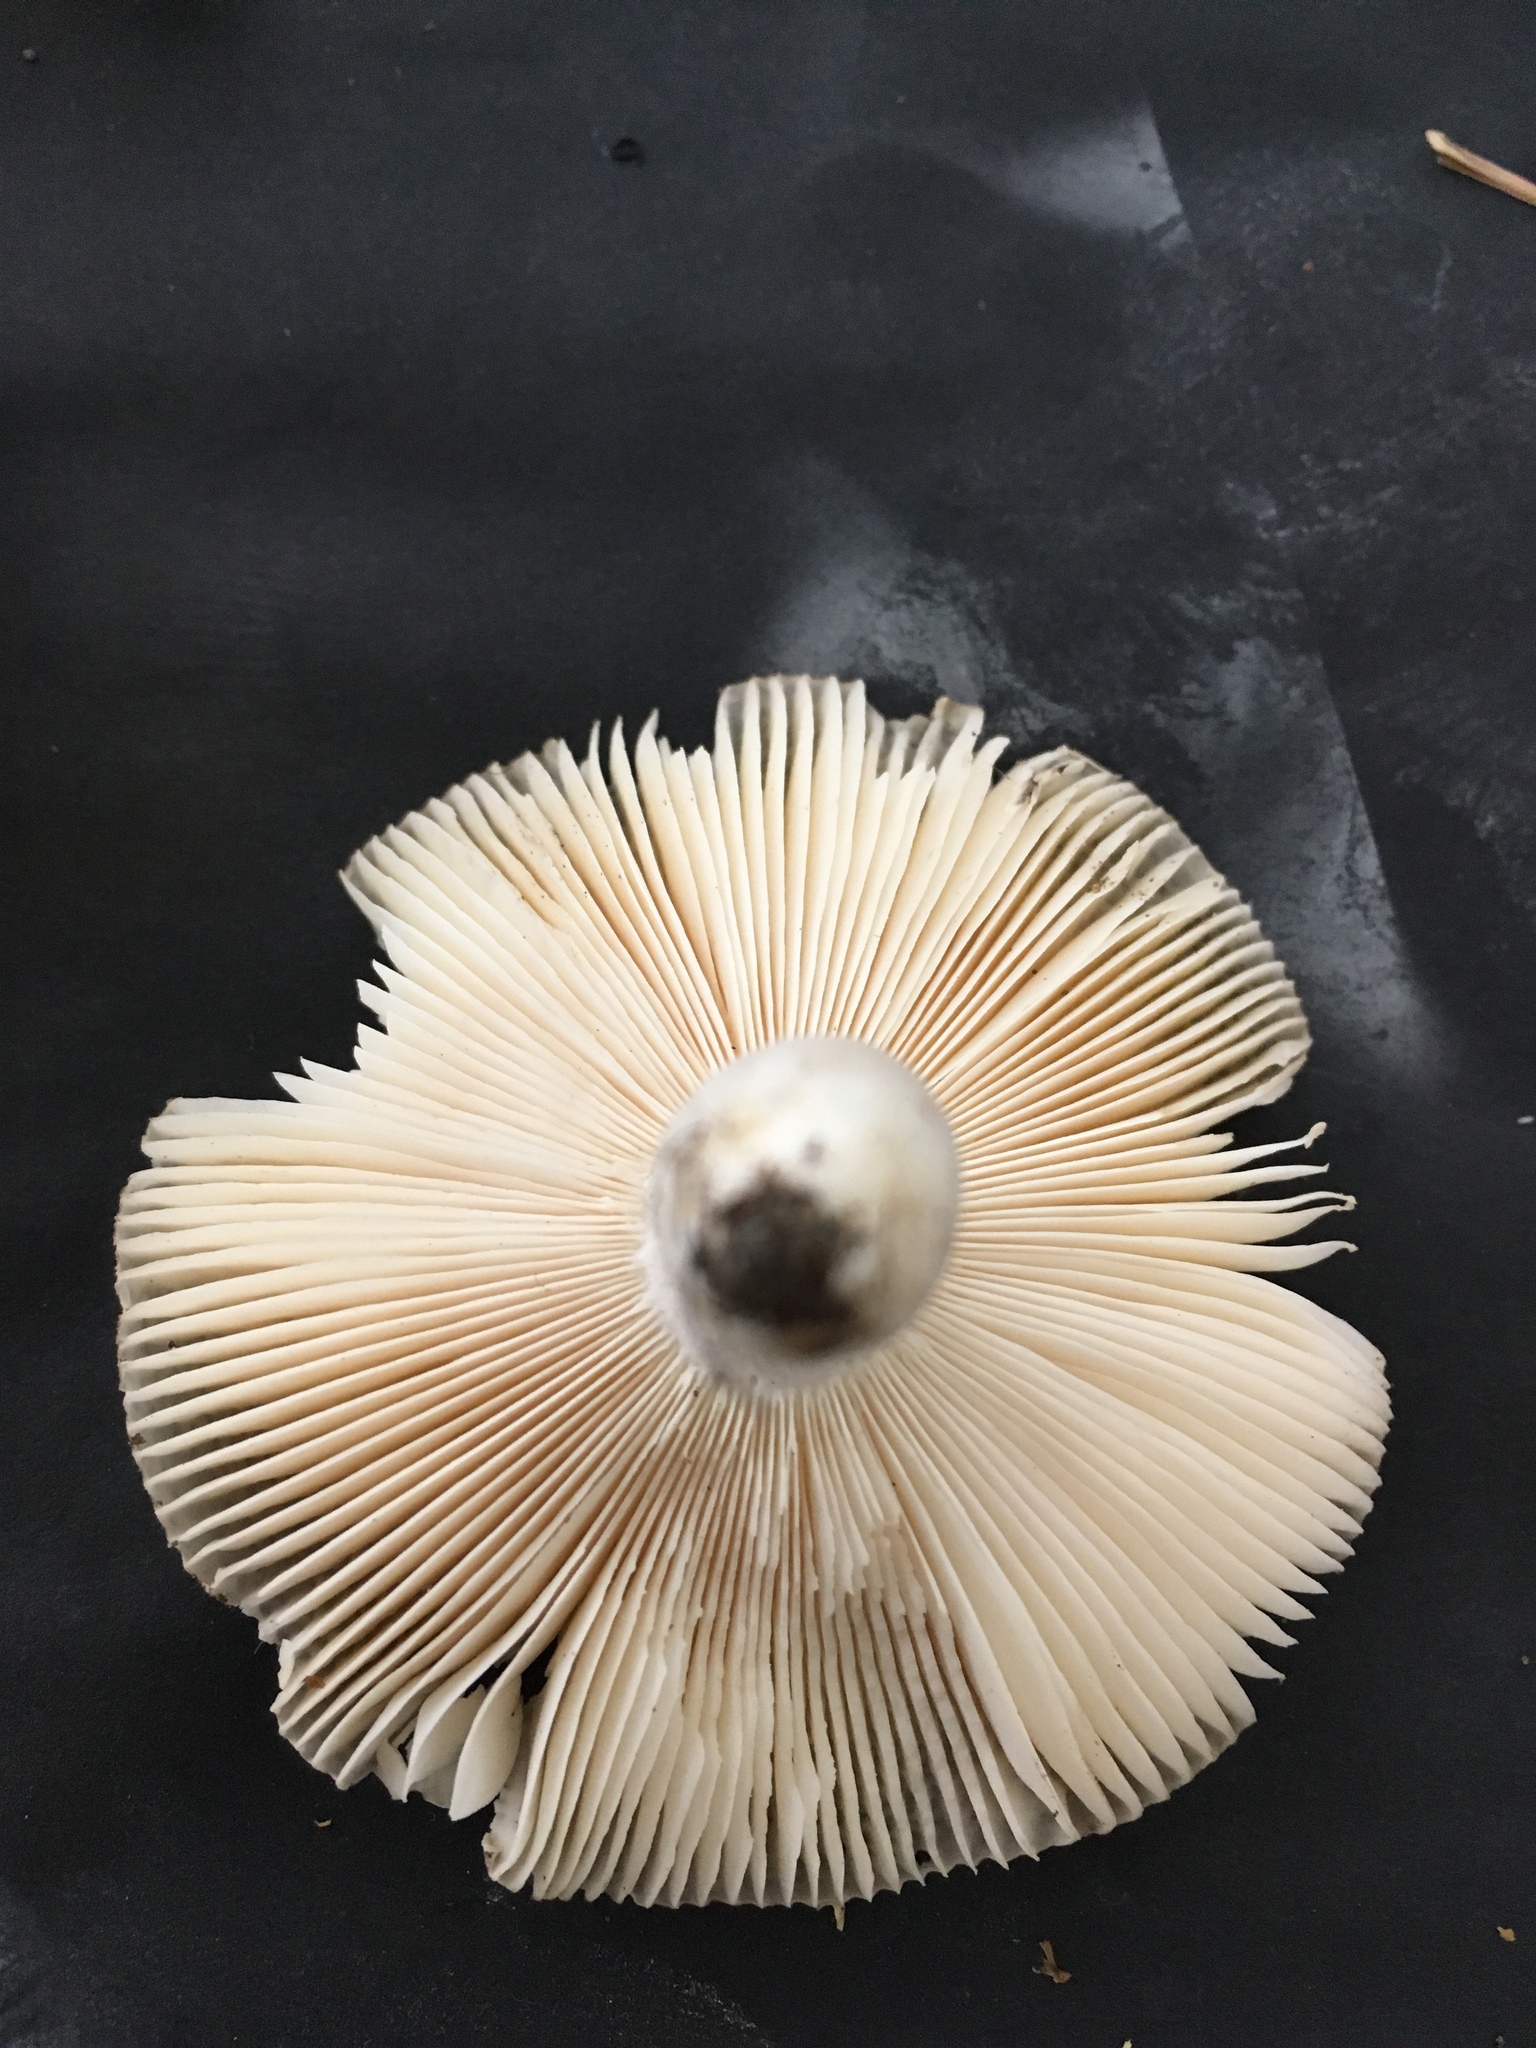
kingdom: Fungi
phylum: Basidiomycota
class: Agaricomycetes
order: Russulales
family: Russulaceae
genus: Russula
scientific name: Russula cyanoxantha
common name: Charcoal burner
